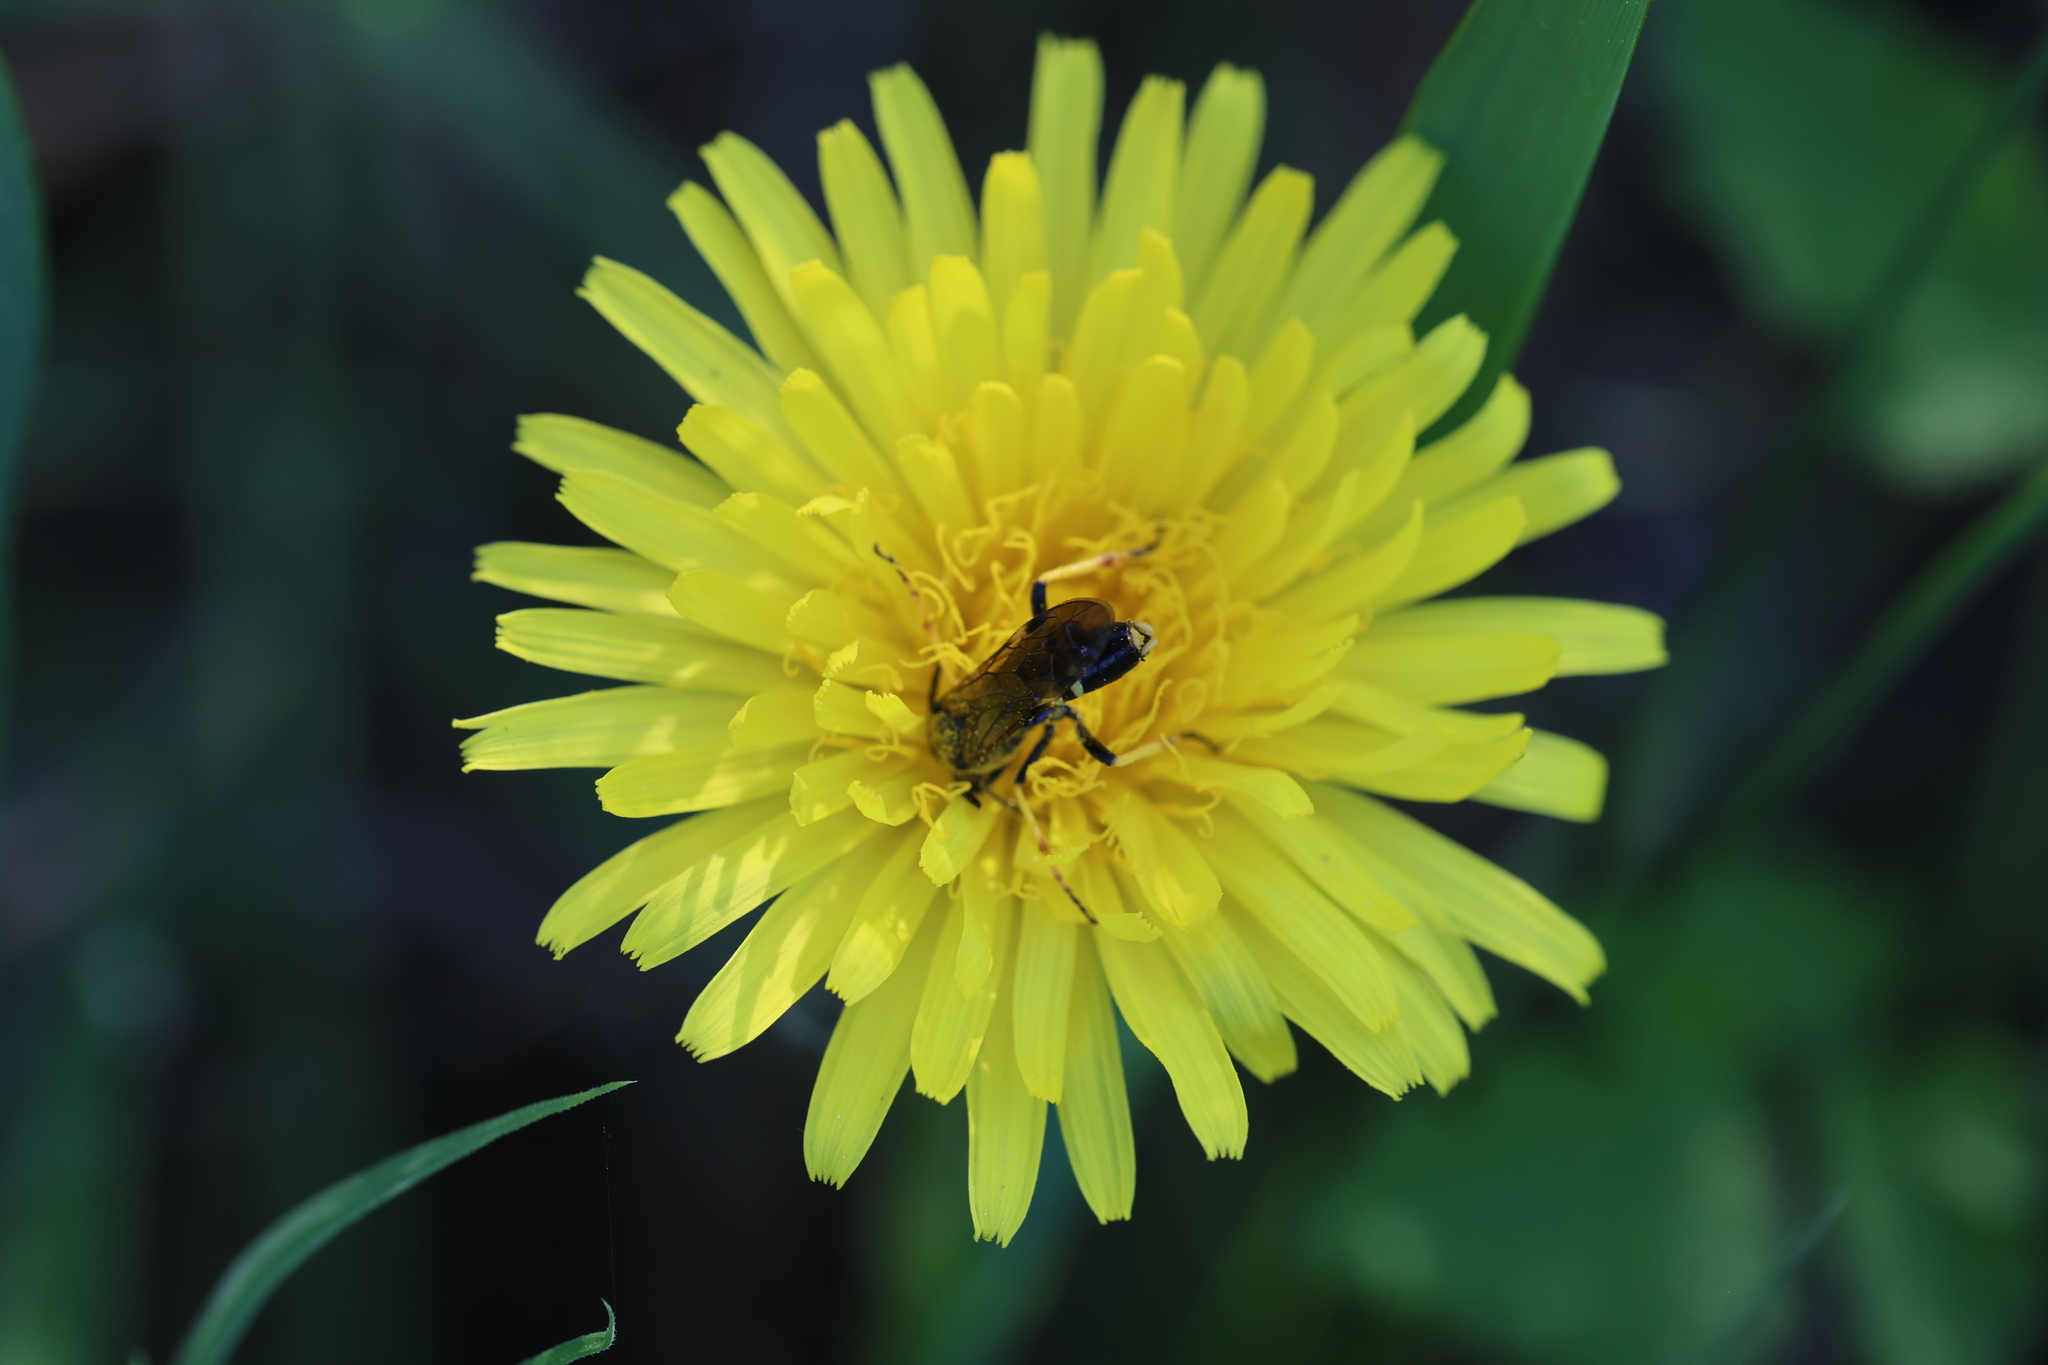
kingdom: Animalia
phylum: Arthropoda
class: Insecta
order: Hymenoptera
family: Tenthredinidae
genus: Tenthredo
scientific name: Tenthredo koehleri
